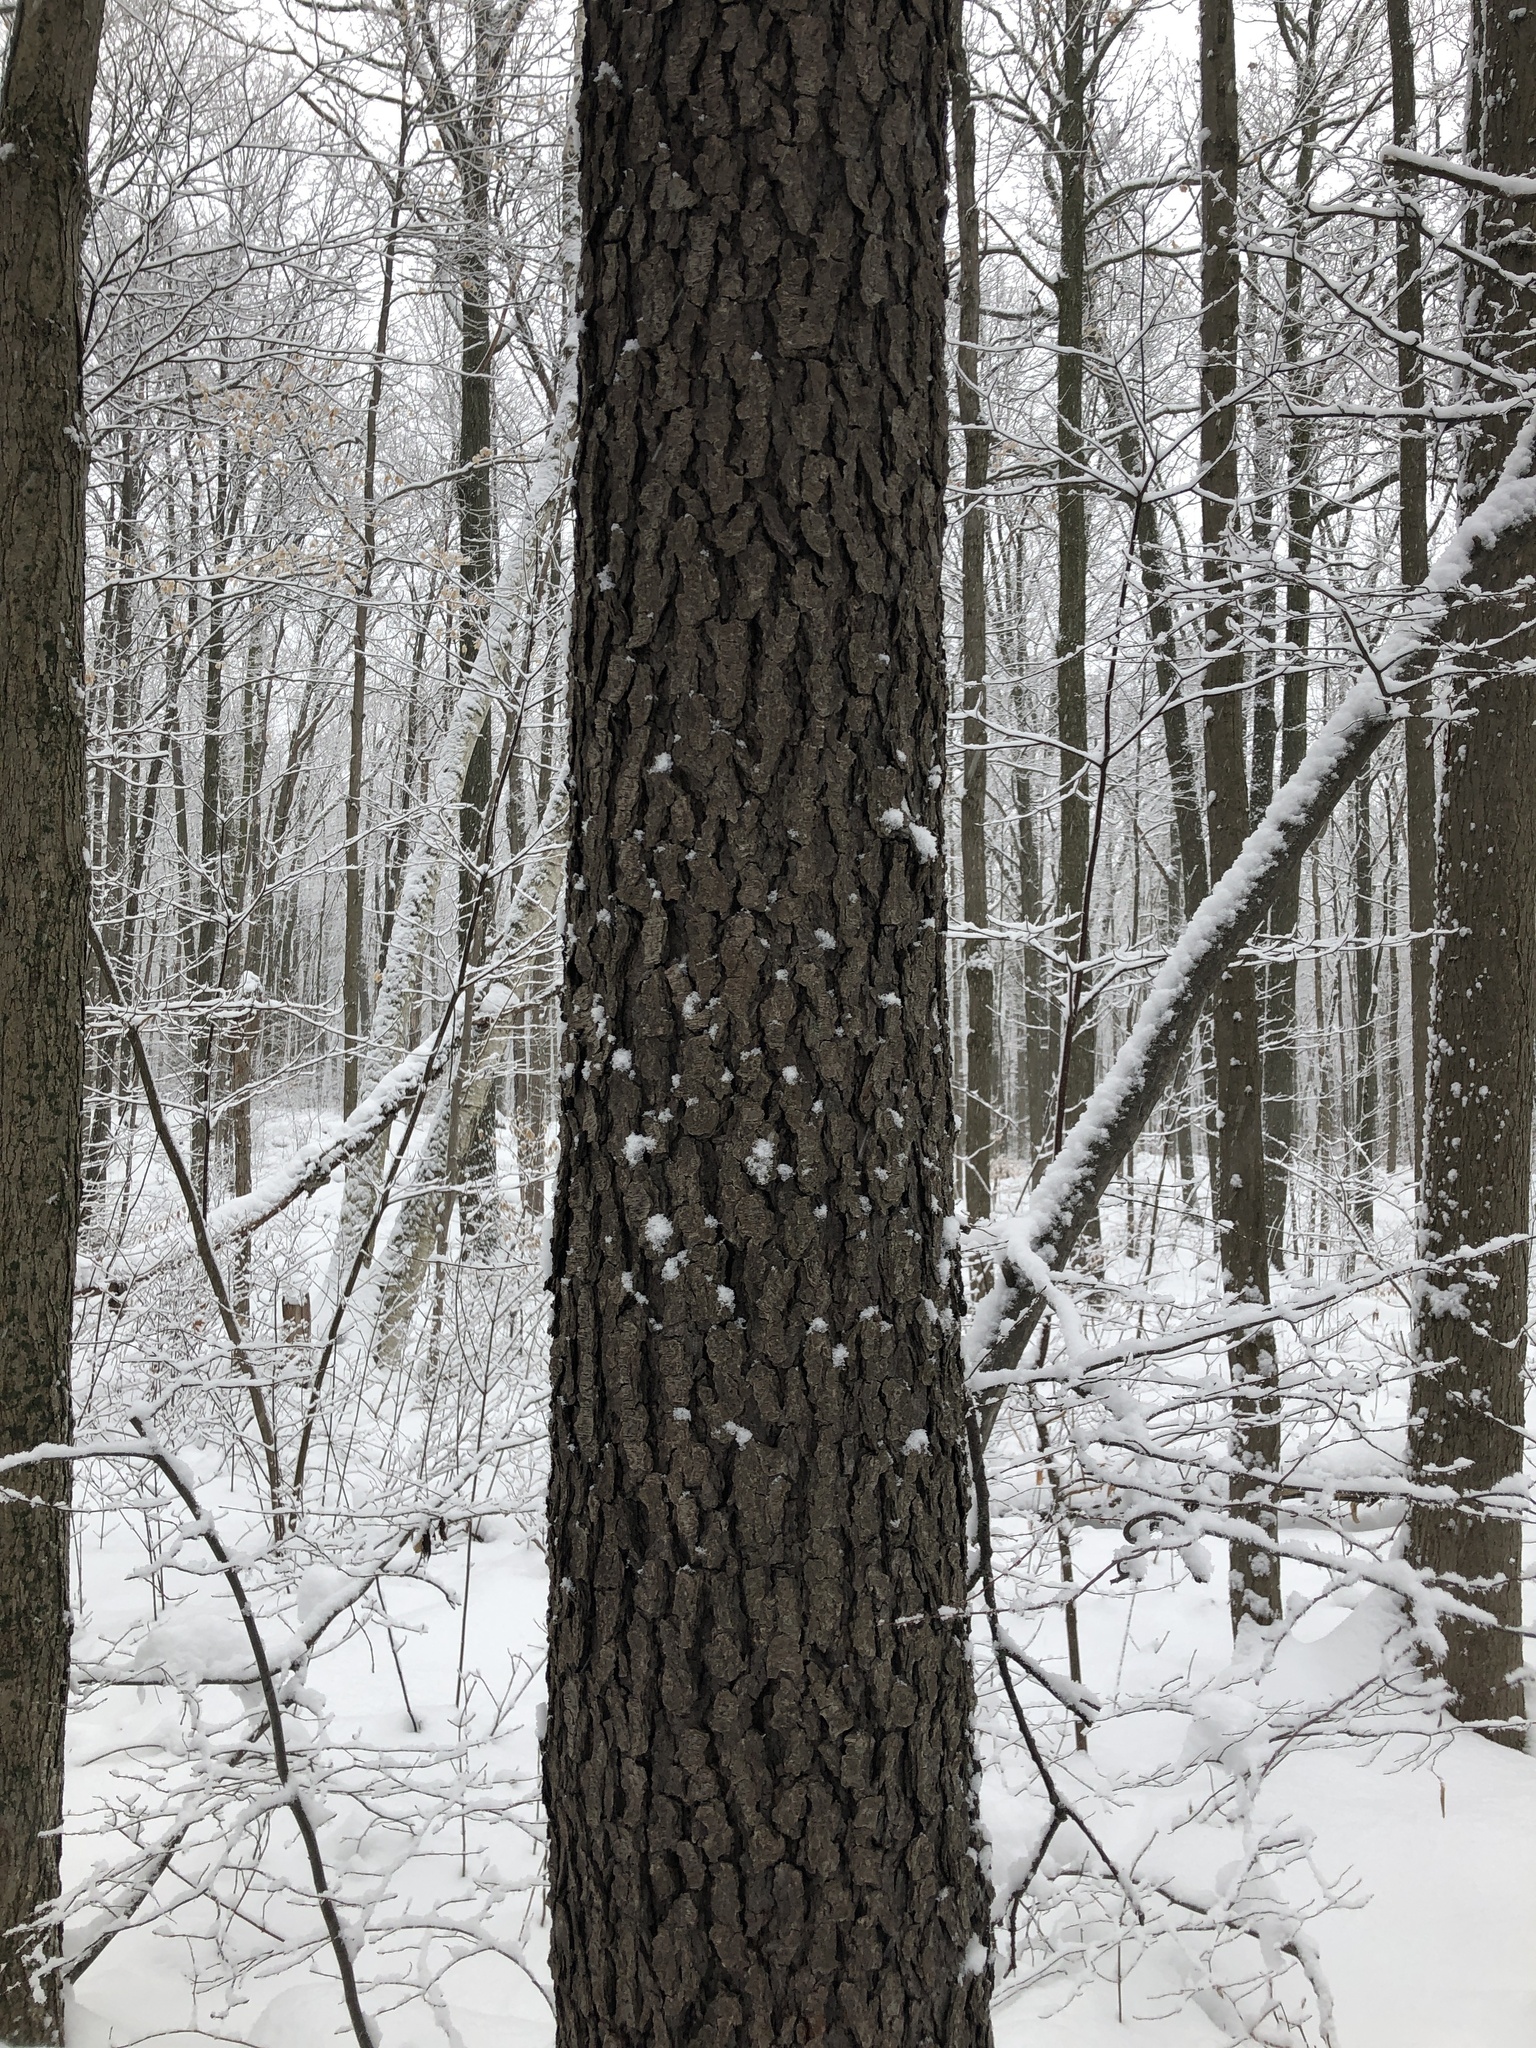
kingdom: Plantae
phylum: Tracheophyta
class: Magnoliopsida
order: Rosales
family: Rosaceae
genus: Prunus
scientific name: Prunus serotina
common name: Black cherry
